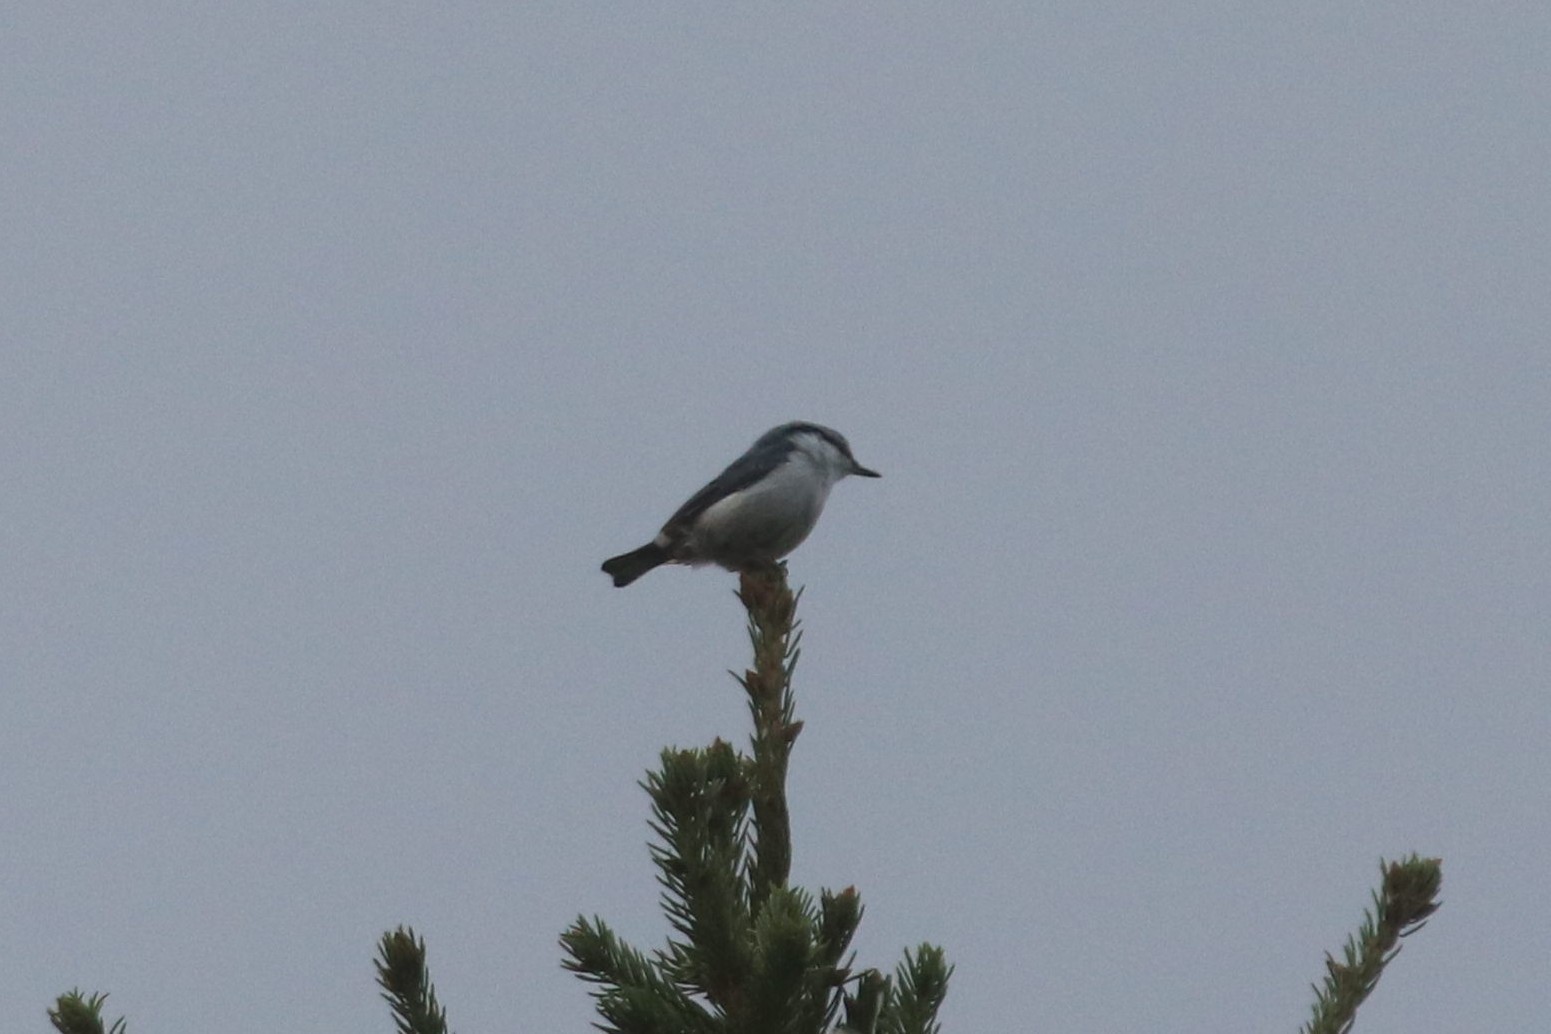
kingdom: Animalia
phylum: Chordata
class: Aves
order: Passeriformes
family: Sittidae
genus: Sitta
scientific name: Sitta europaea
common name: Eurasian nuthatch
